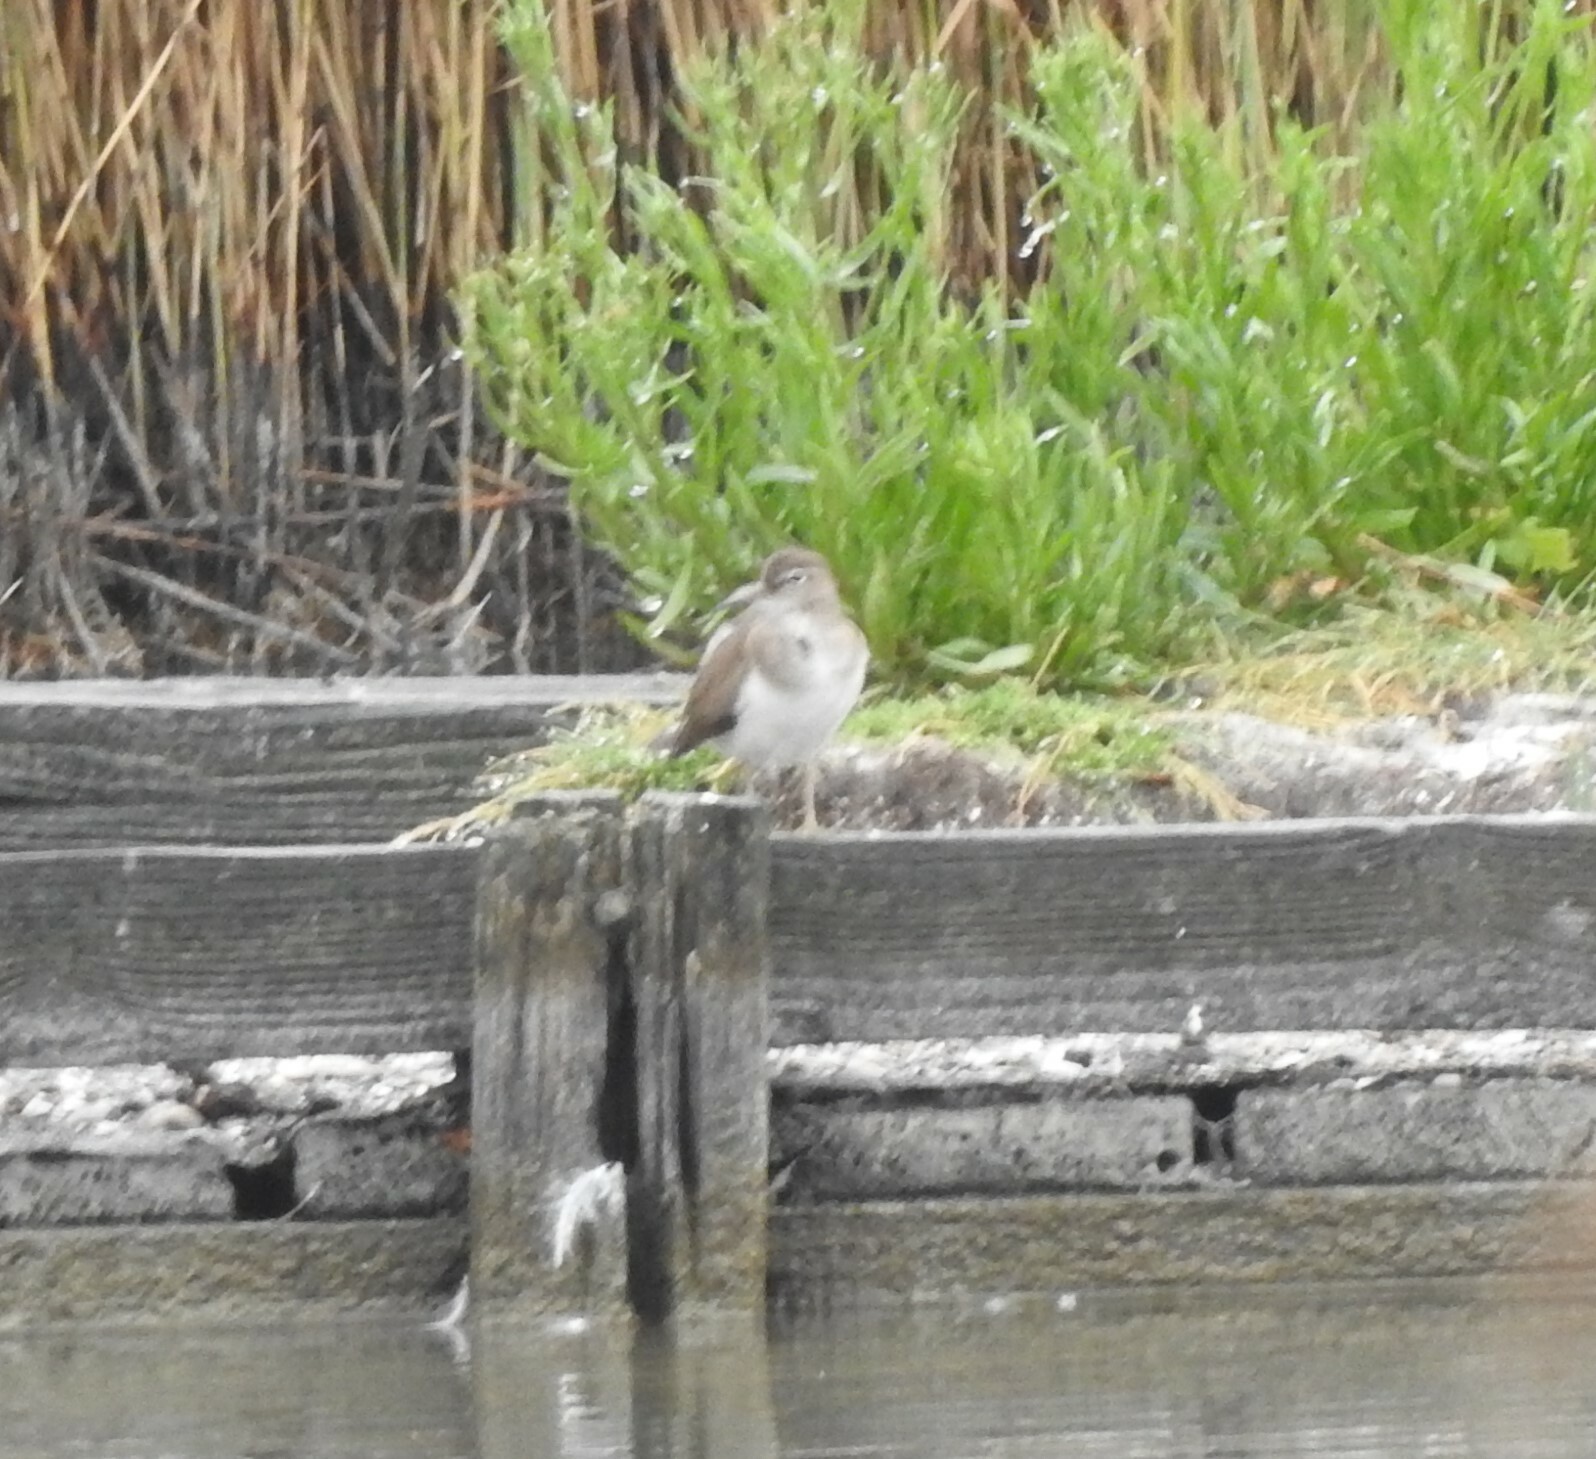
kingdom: Animalia
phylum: Chordata
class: Aves
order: Charadriiformes
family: Scolopacidae
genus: Actitis
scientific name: Actitis hypoleucos
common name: Common sandpiper
